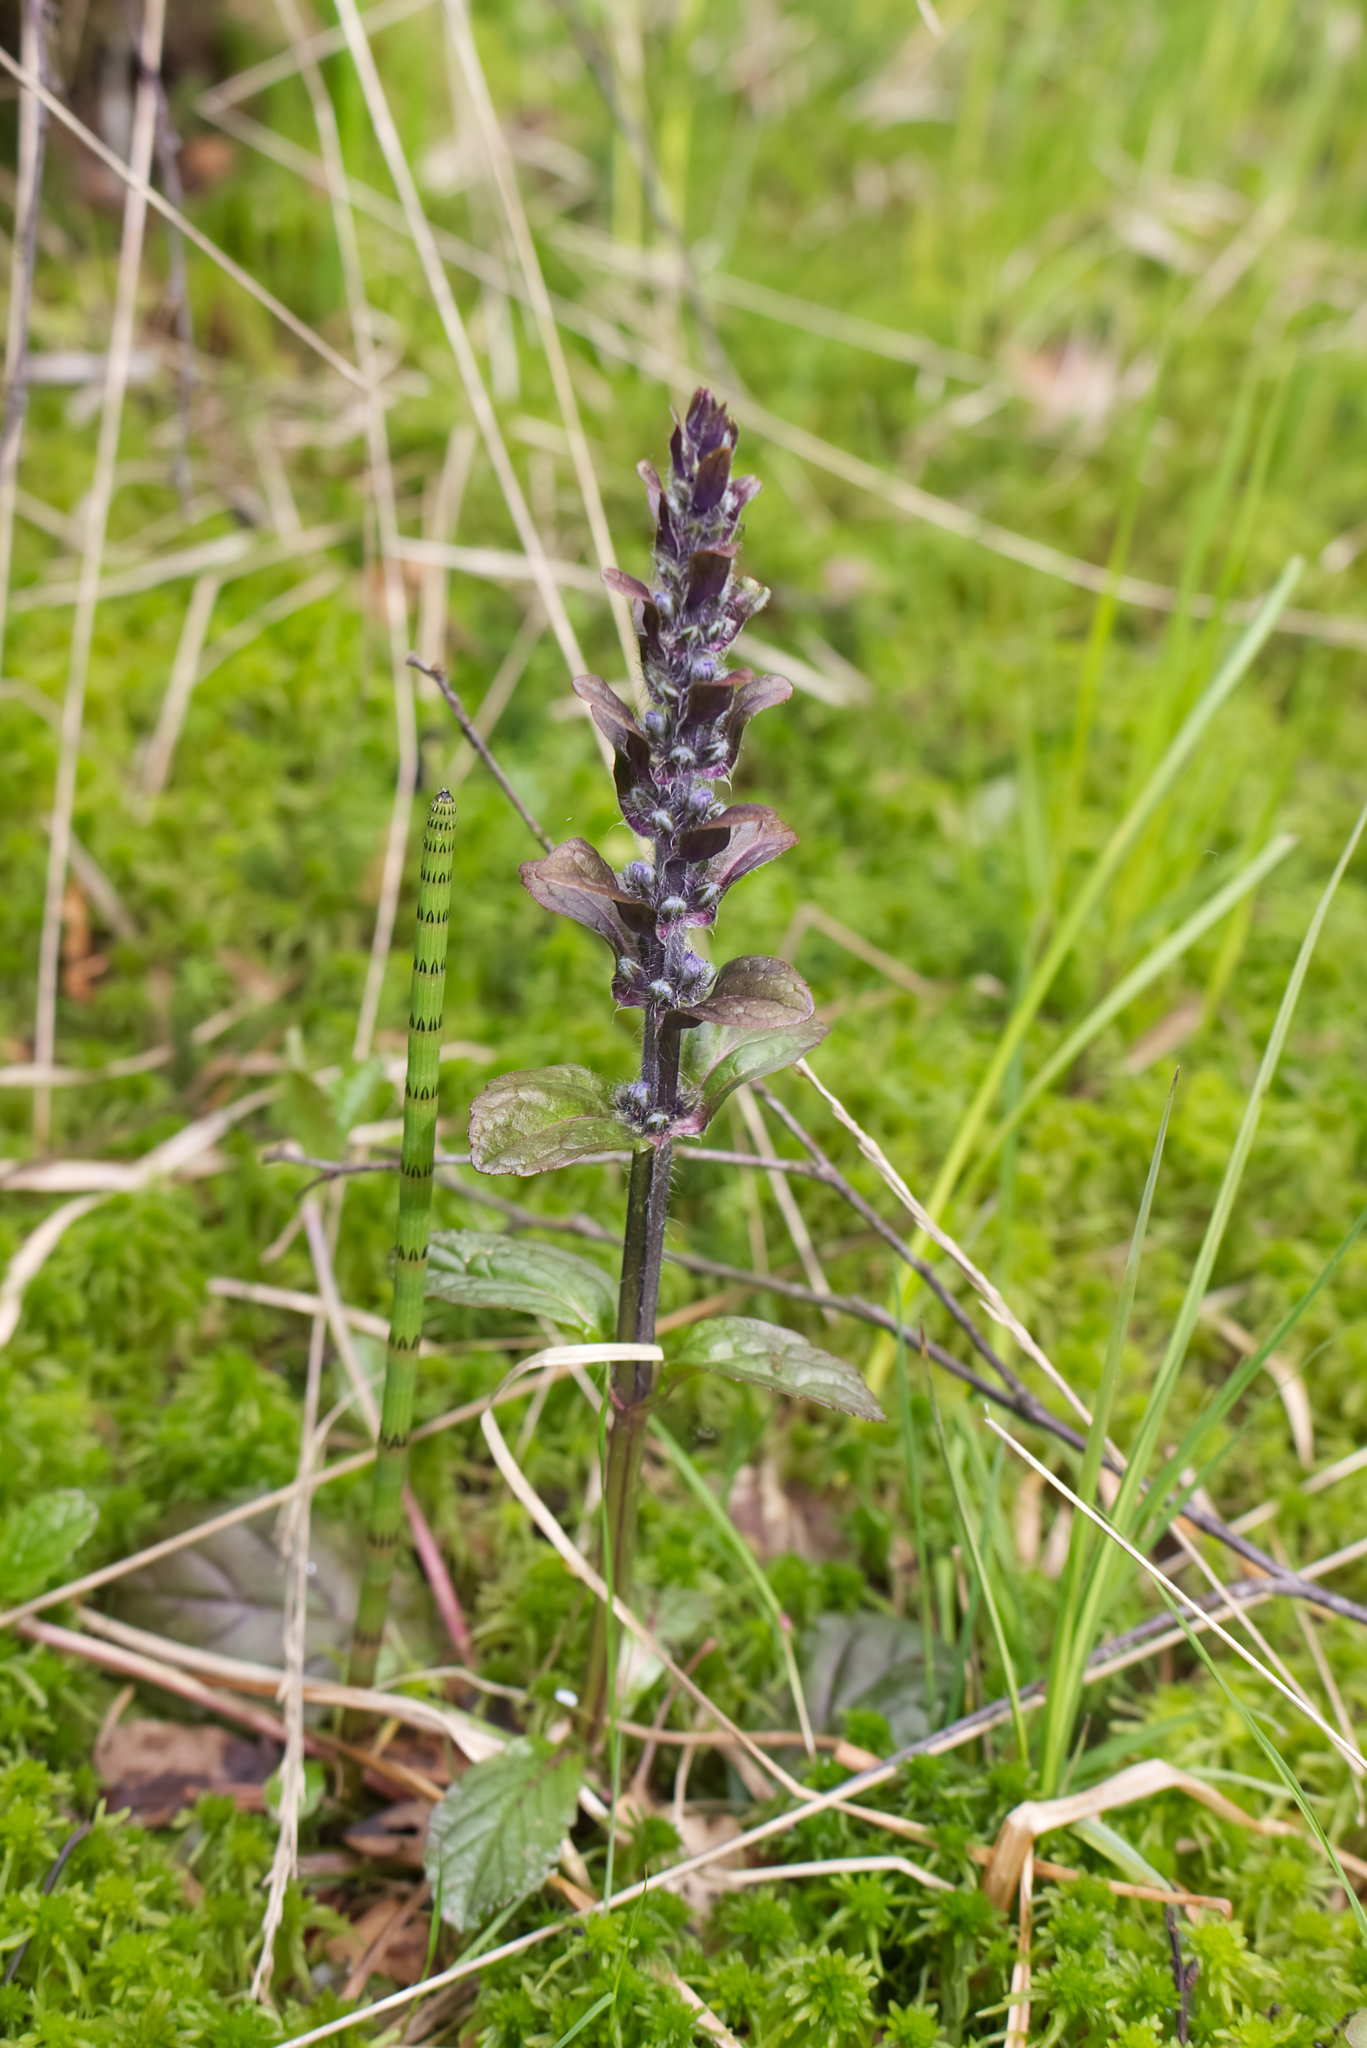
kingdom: Plantae
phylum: Tracheophyta
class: Magnoliopsida
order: Lamiales
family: Lamiaceae
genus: Ajuga
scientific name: Ajuga reptans
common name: Bugle
